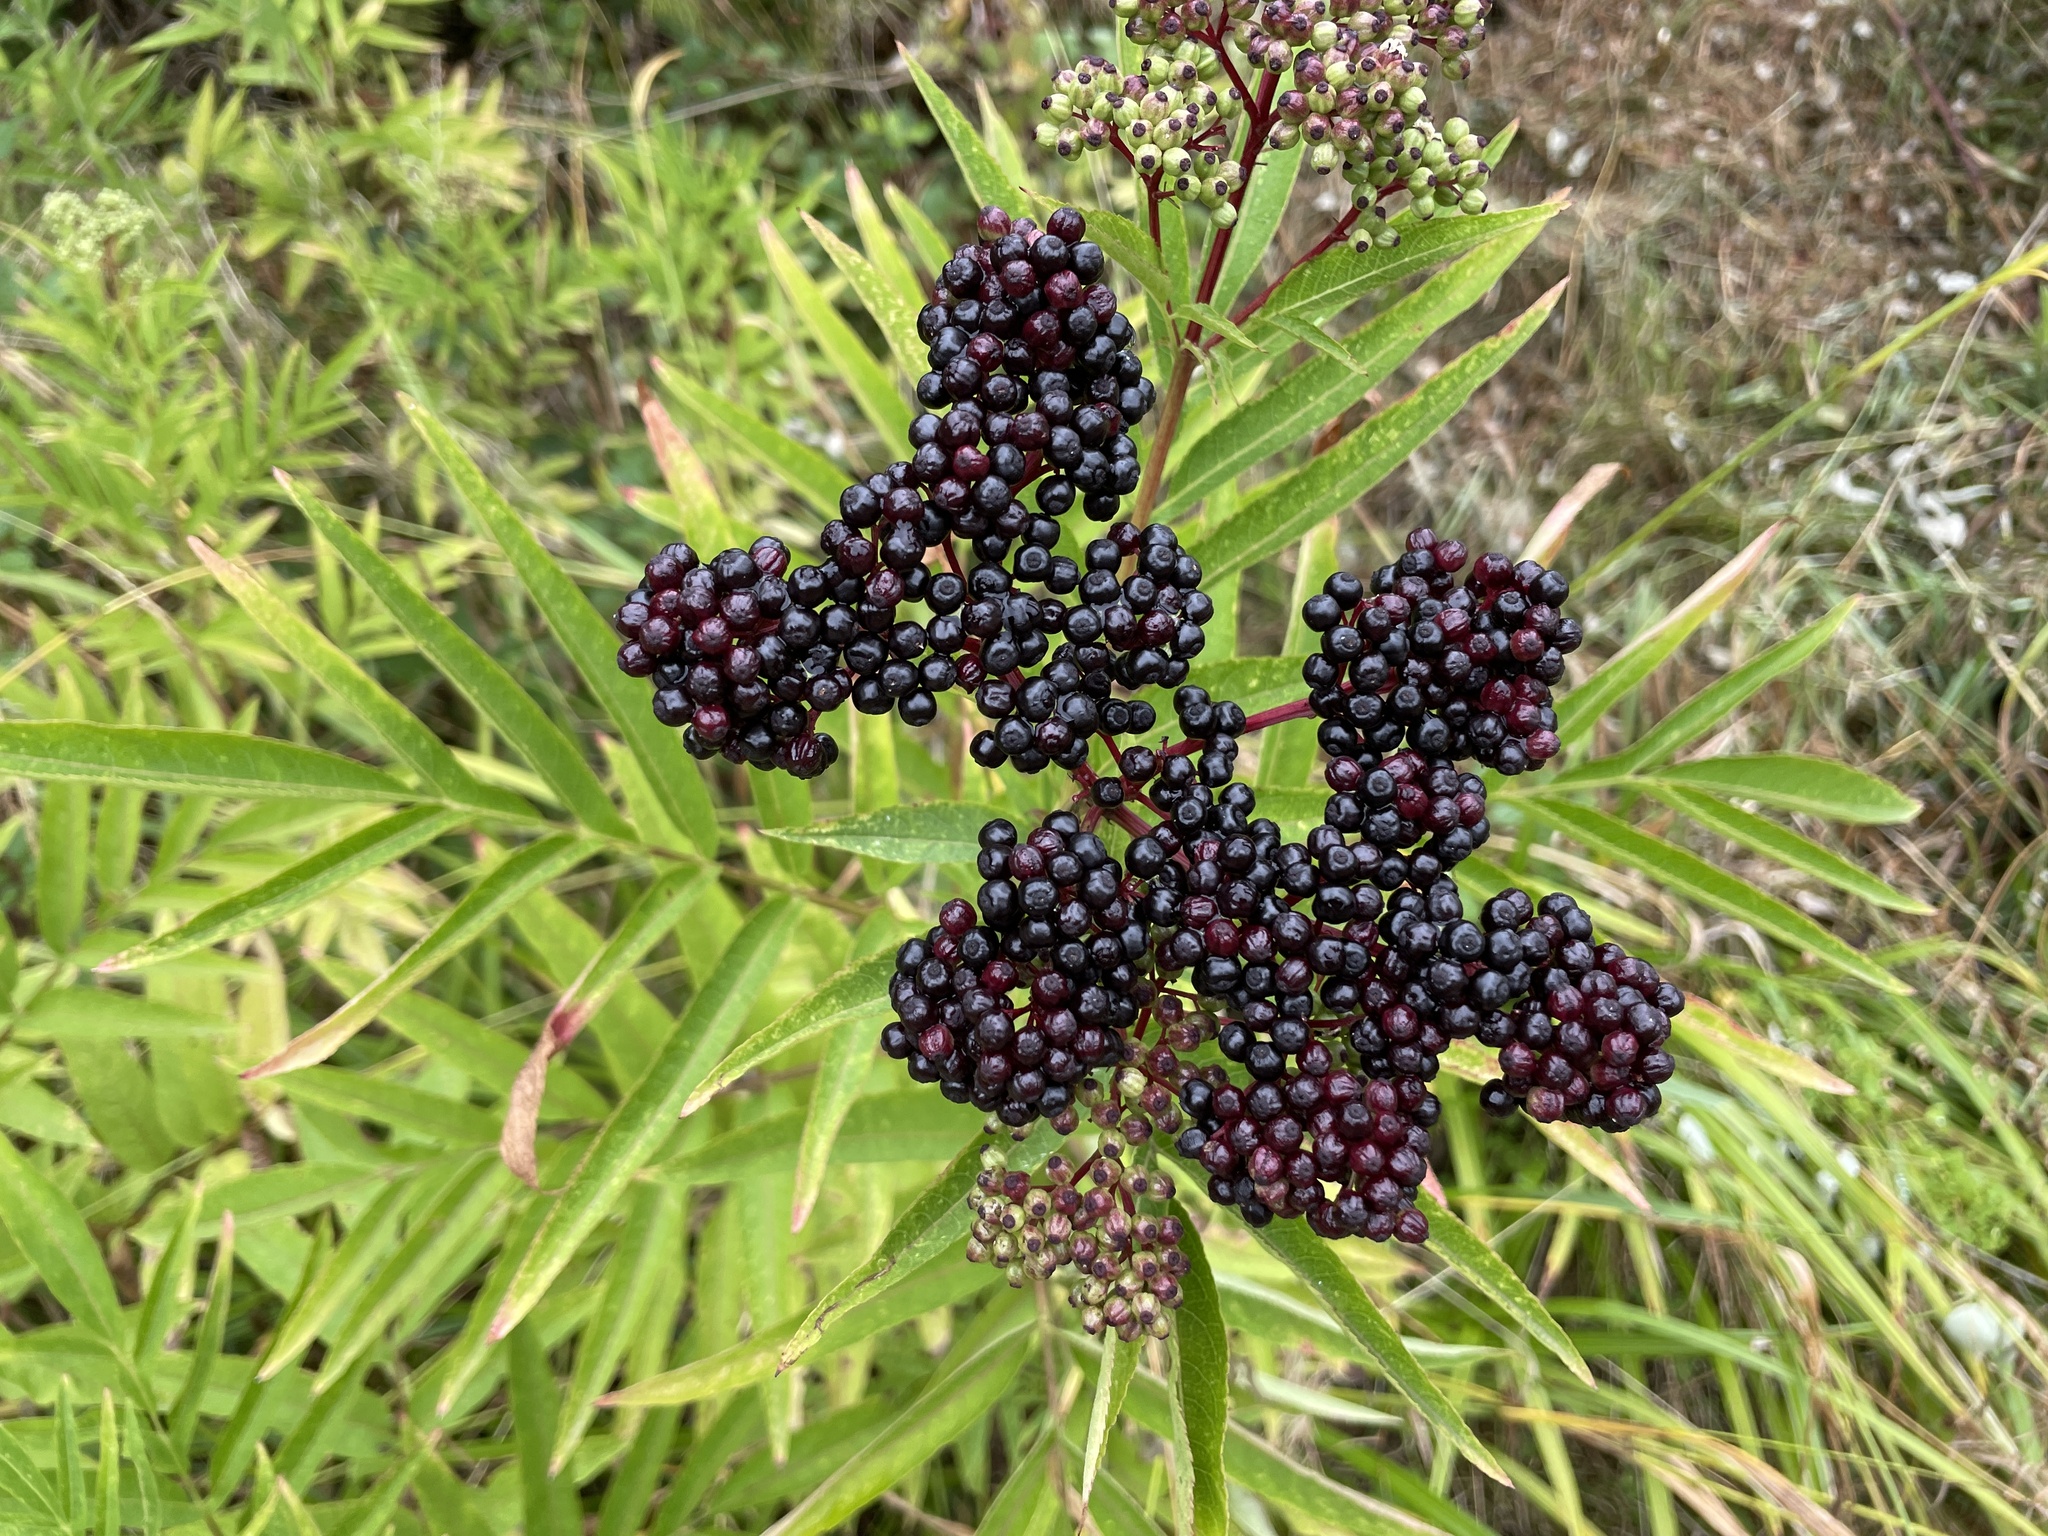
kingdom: Plantae
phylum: Tracheophyta
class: Magnoliopsida
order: Dipsacales
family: Viburnaceae
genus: Sambucus
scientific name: Sambucus ebulus
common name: Dwarf elder
